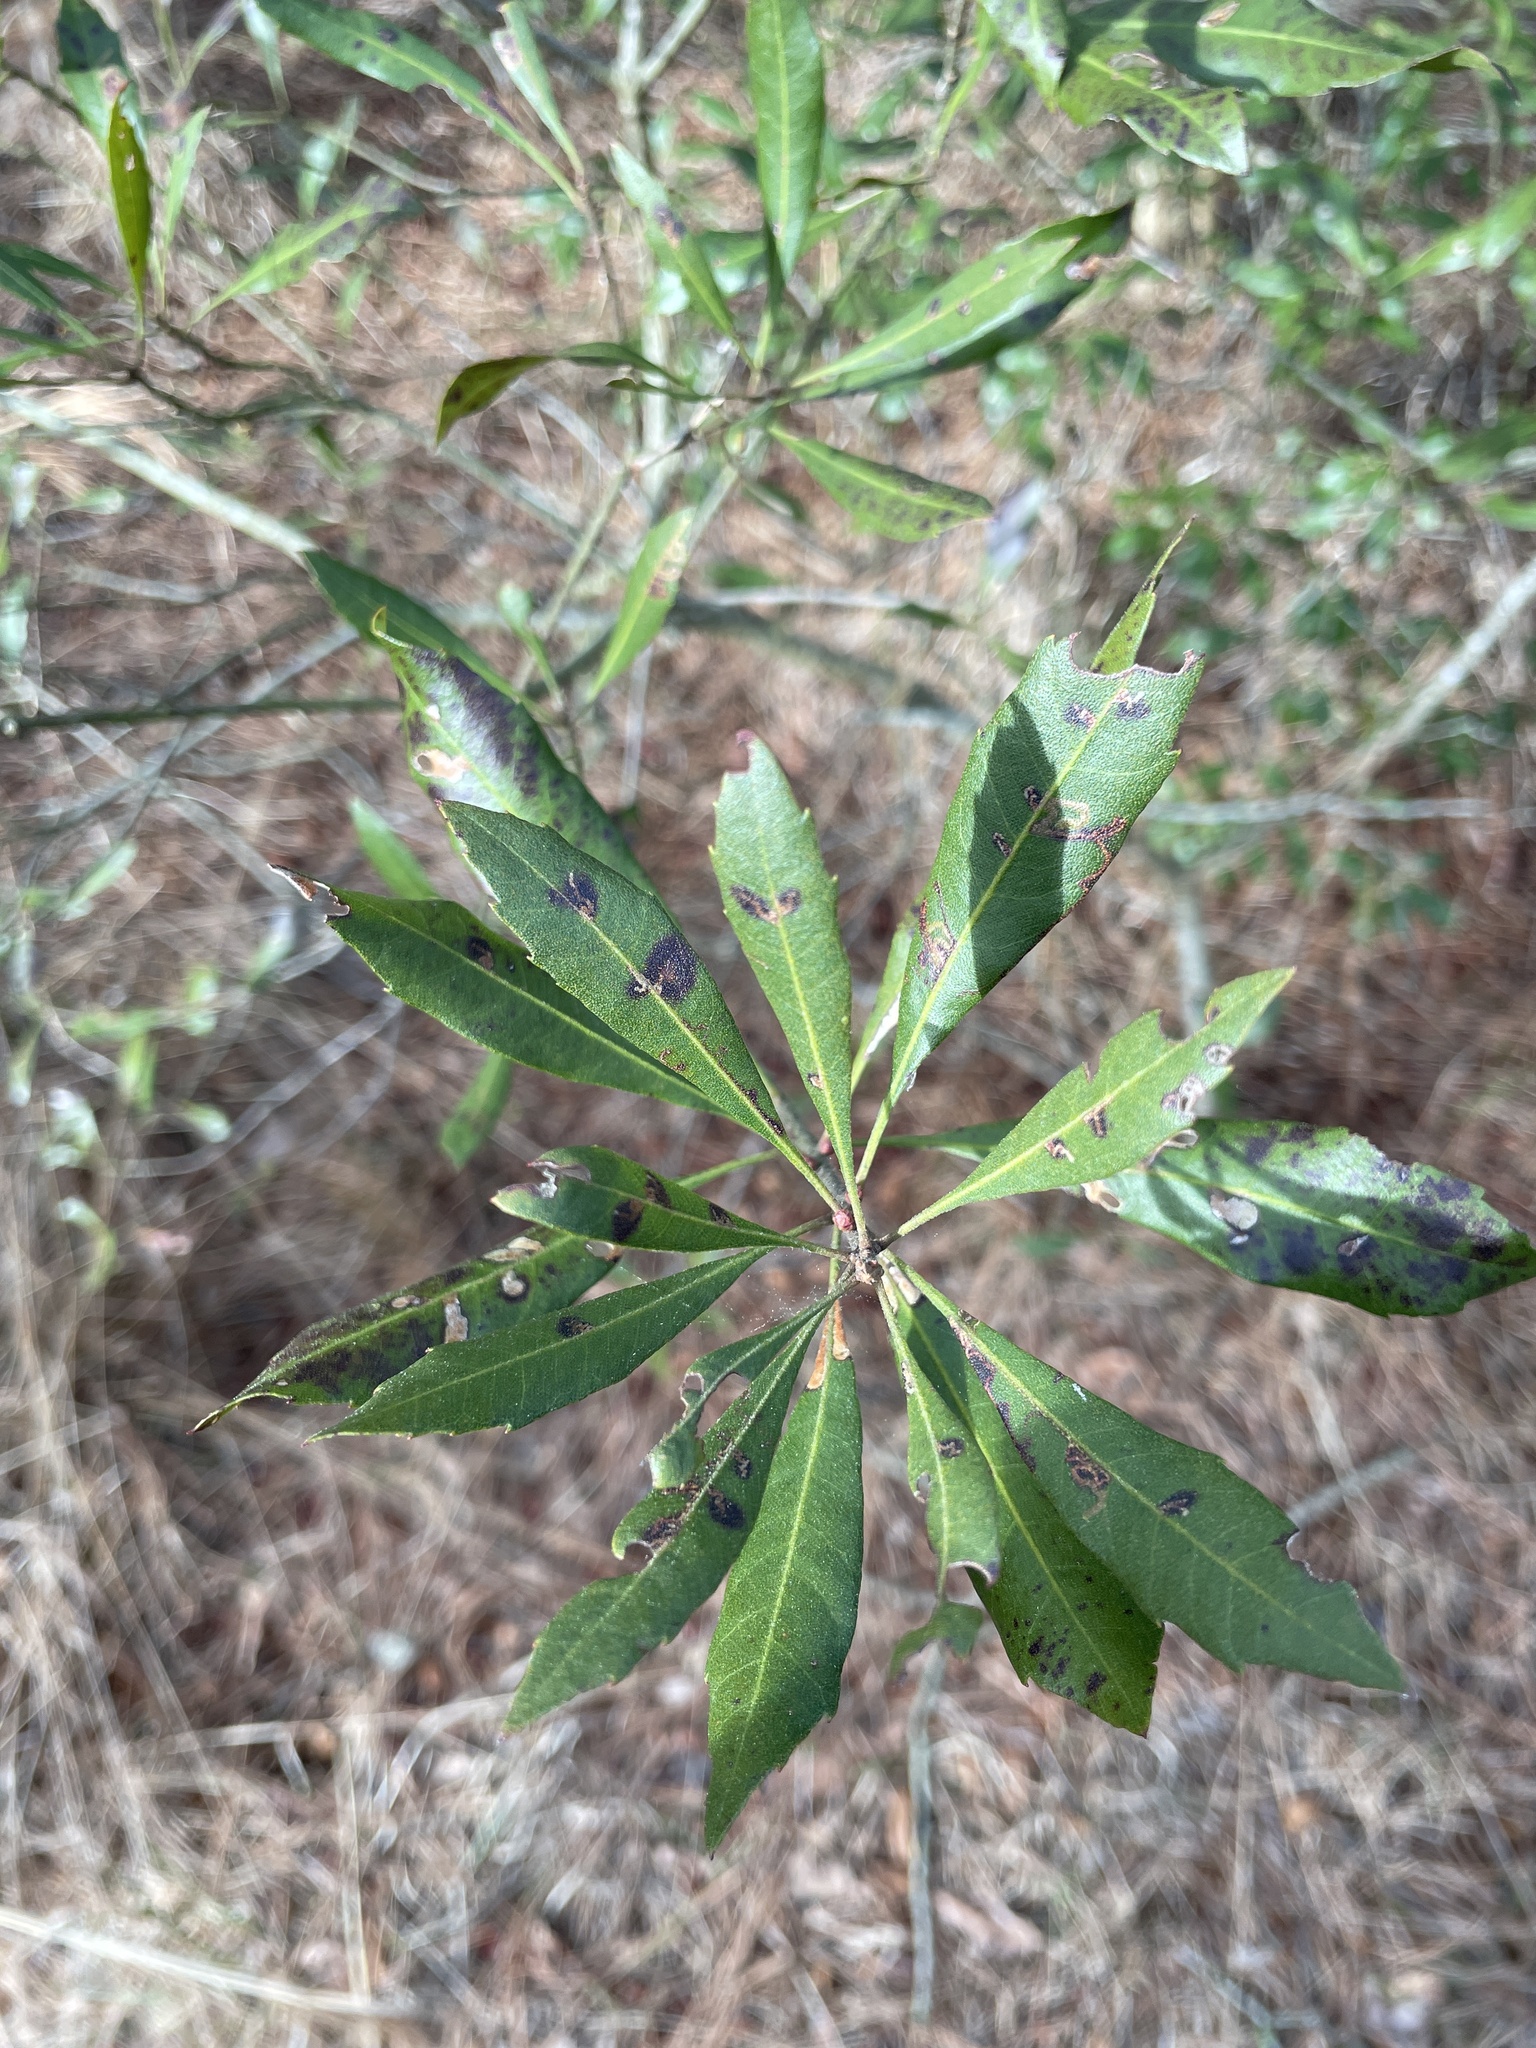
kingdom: Plantae
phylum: Tracheophyta
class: Magnoliopsida
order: Fagales
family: Myricaceae
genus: Morella
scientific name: Morella cerifera
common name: Wax myrtle
